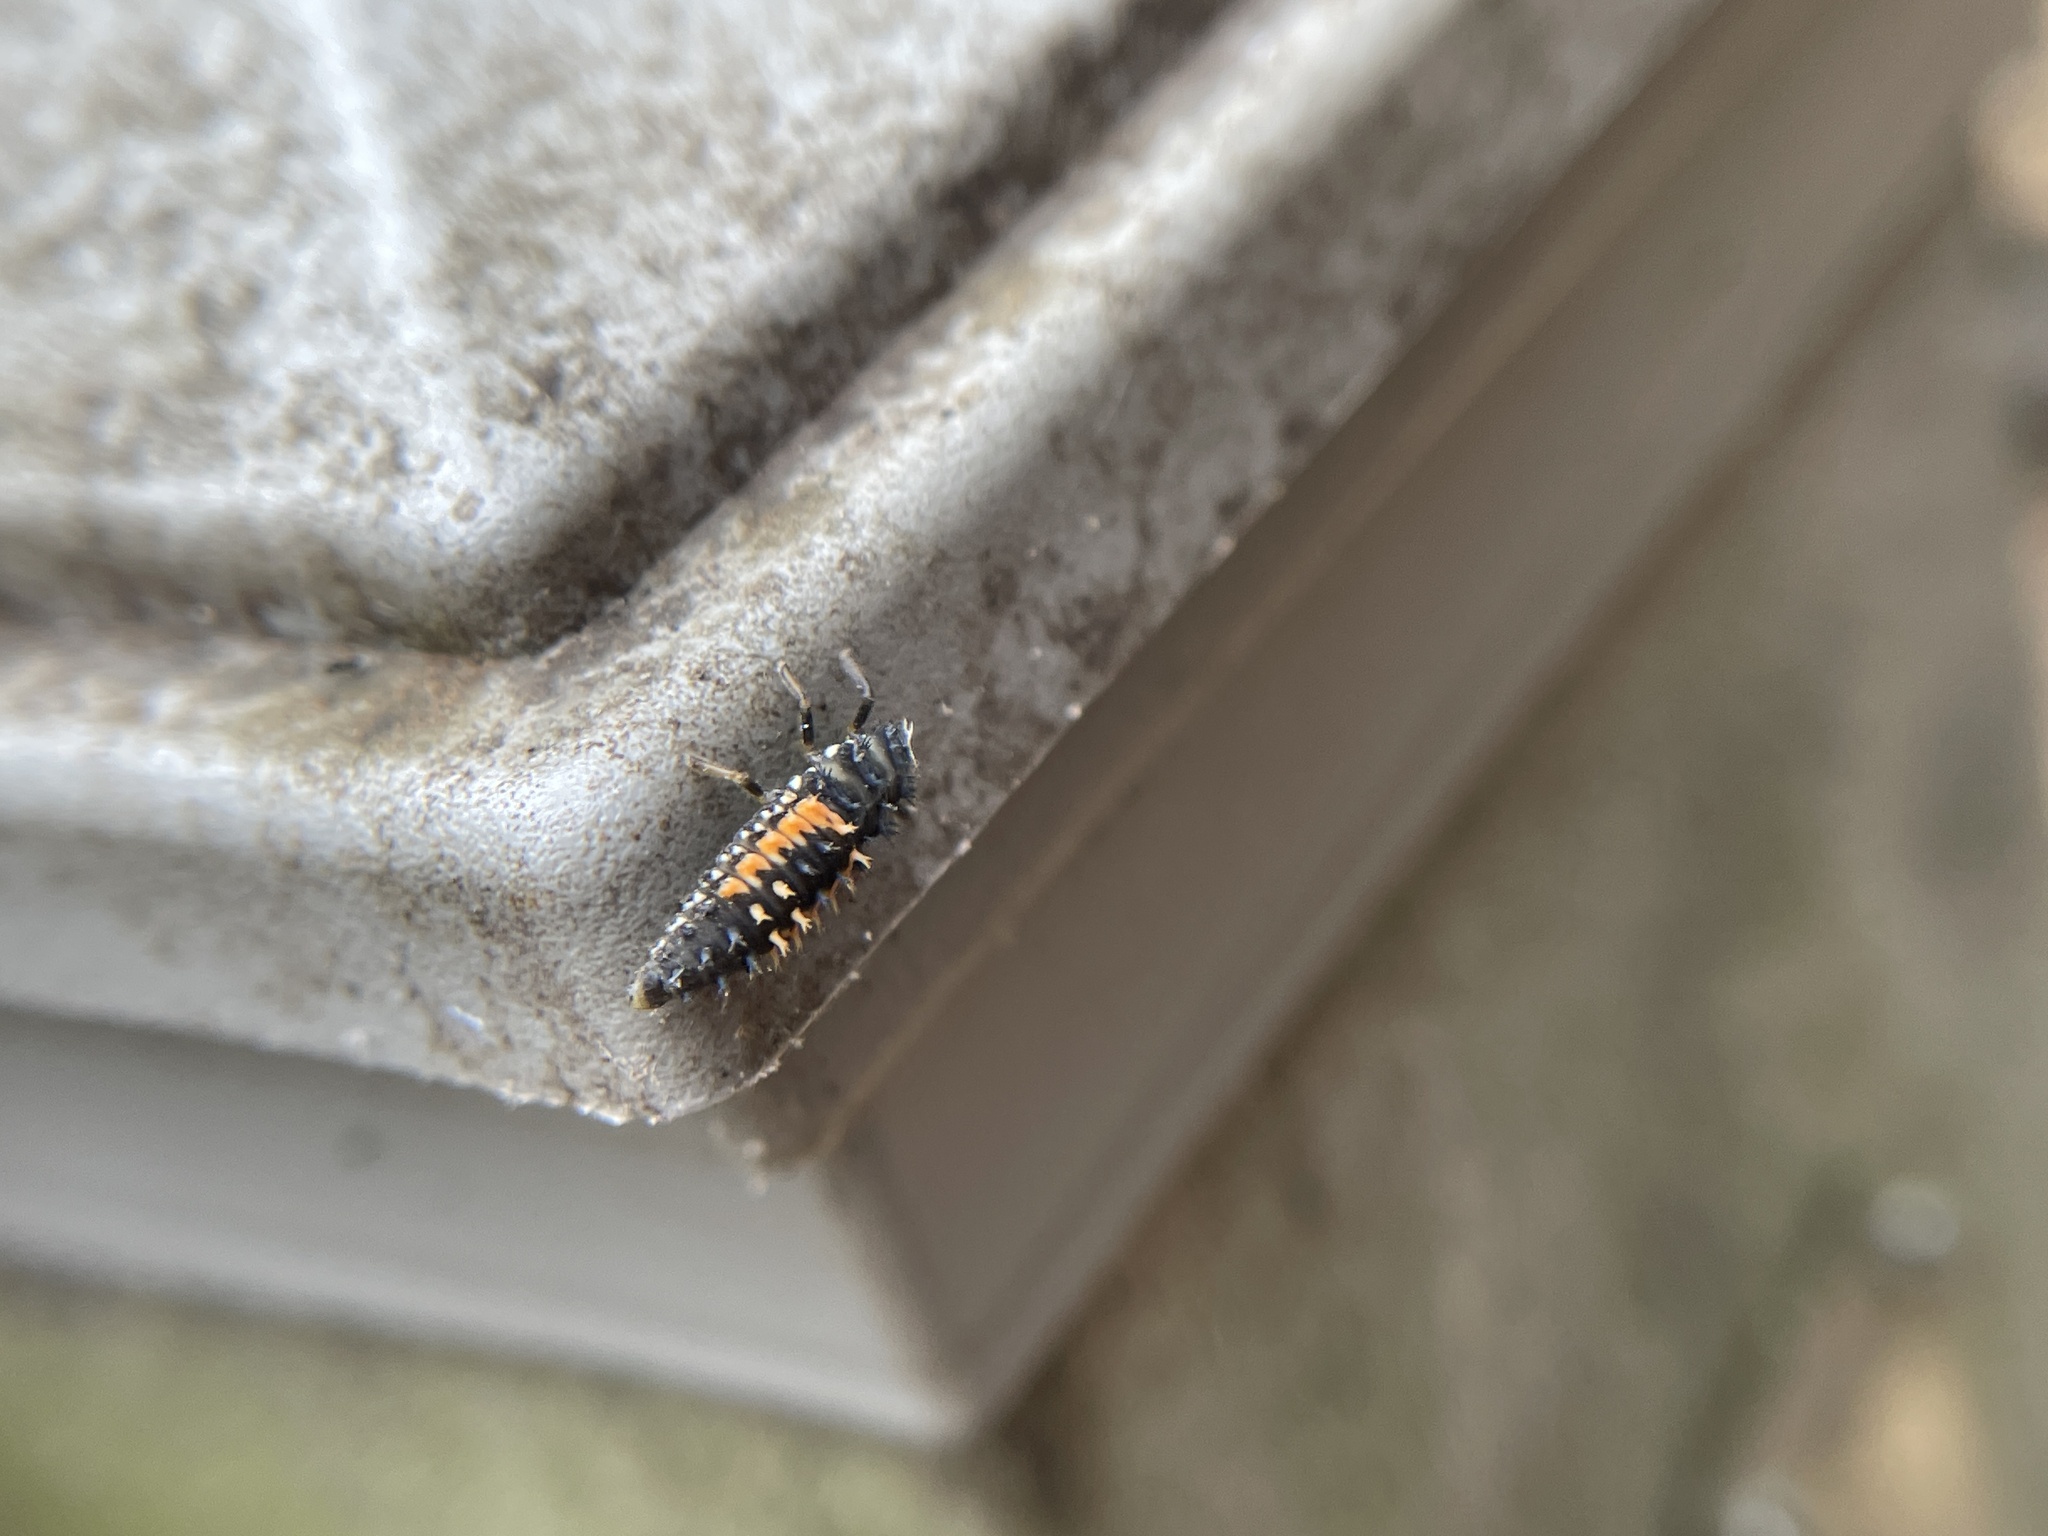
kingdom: Animalia
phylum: Arthropoda
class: Insecta
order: Coleoptera
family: Coccinellidae
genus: Harmonia
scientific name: Harmonia axyridis
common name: Harlequin ladybird
